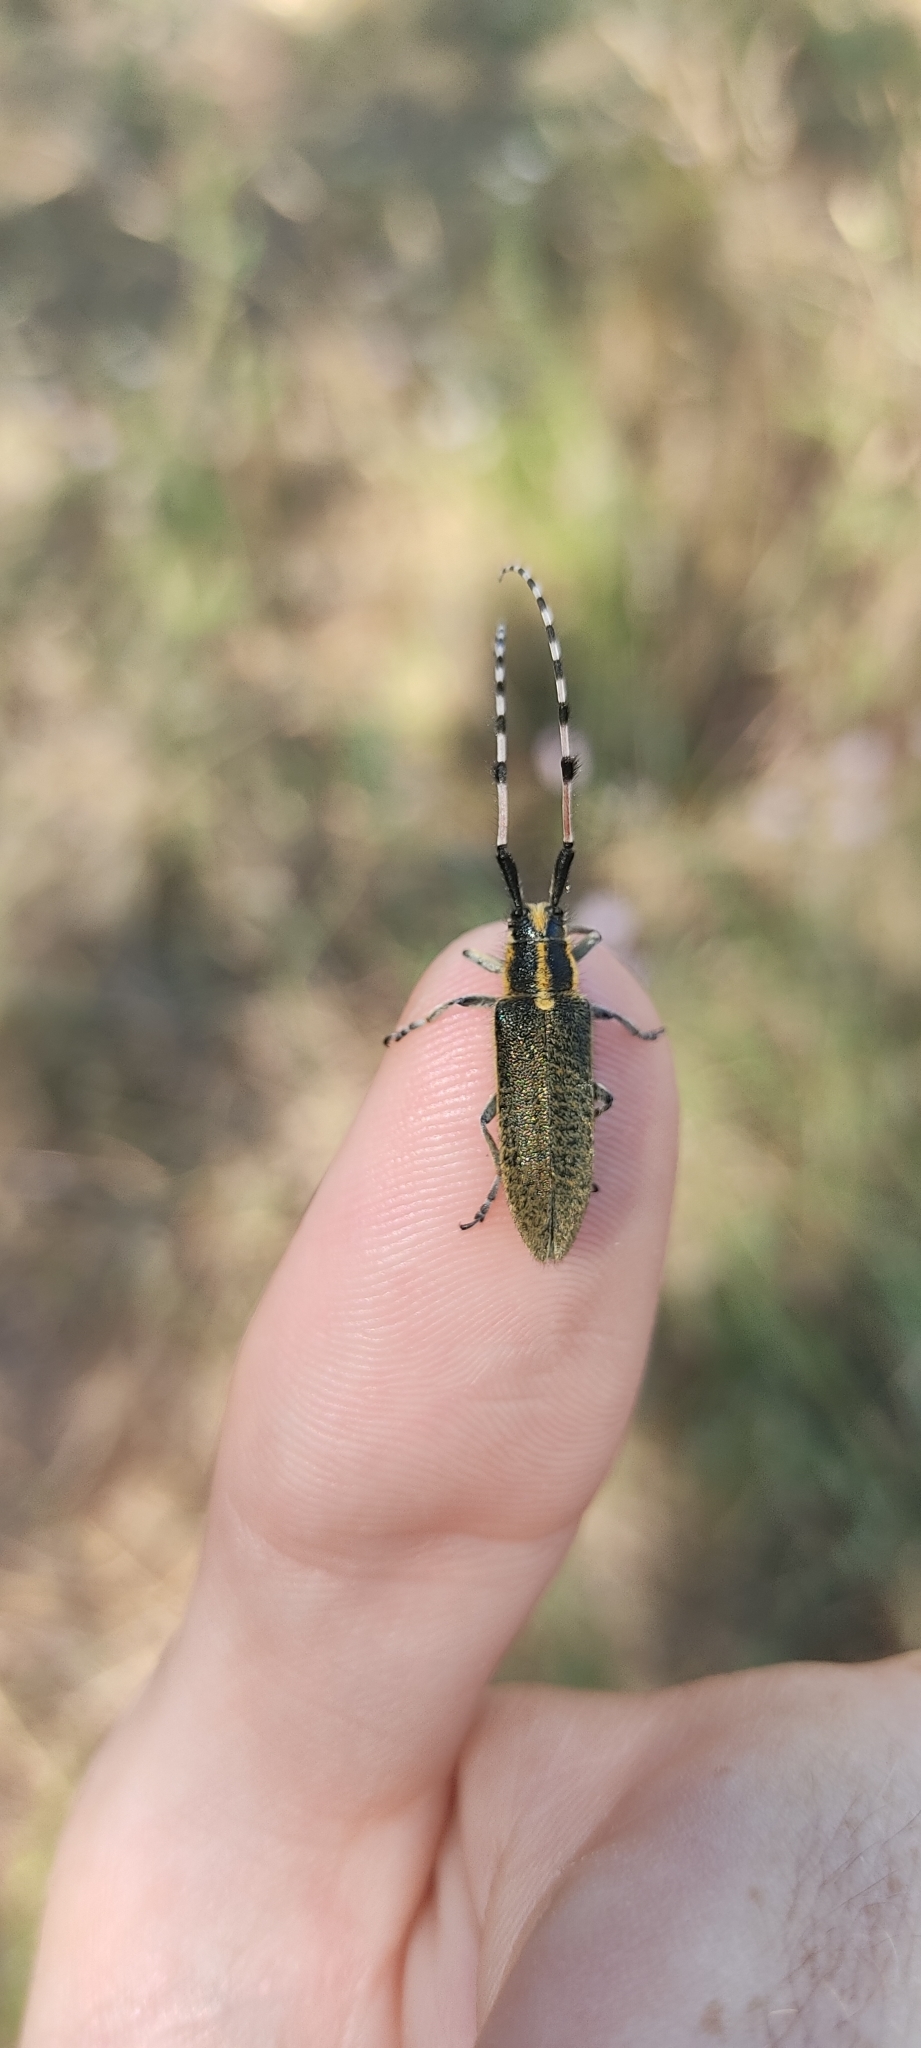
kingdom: Animalia
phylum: Arthropoda
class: Insecta
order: Coleoptera
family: Cerambycidae
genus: Agapanthia
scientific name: Agapanthia dahlii
